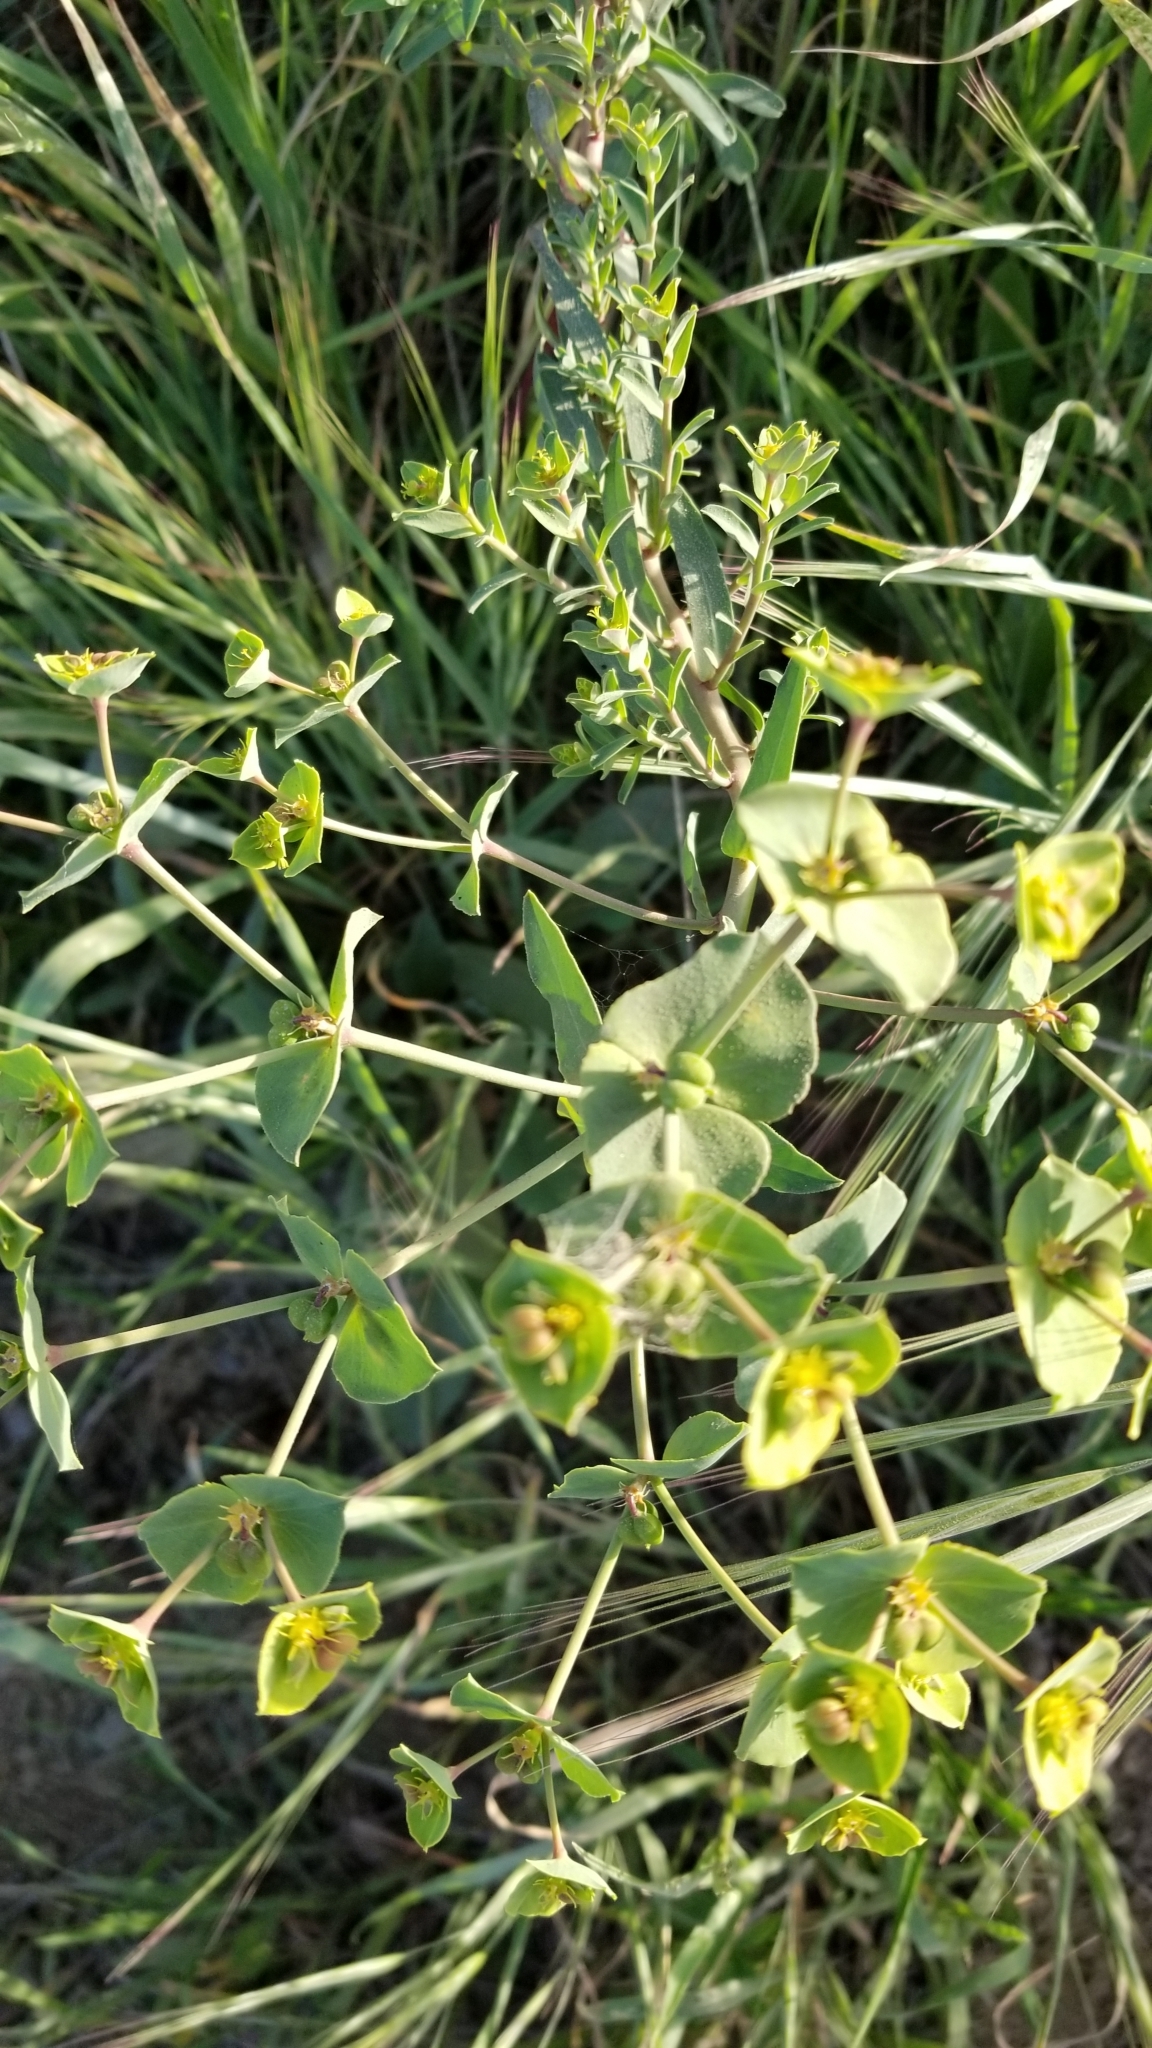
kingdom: Plantae
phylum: Tracheophyta
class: Magnoliopsida
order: Malpighiales
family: Euphorbiaceae
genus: Euphorbia
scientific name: Euphorbia terracina
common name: Geraldton carnation weed
